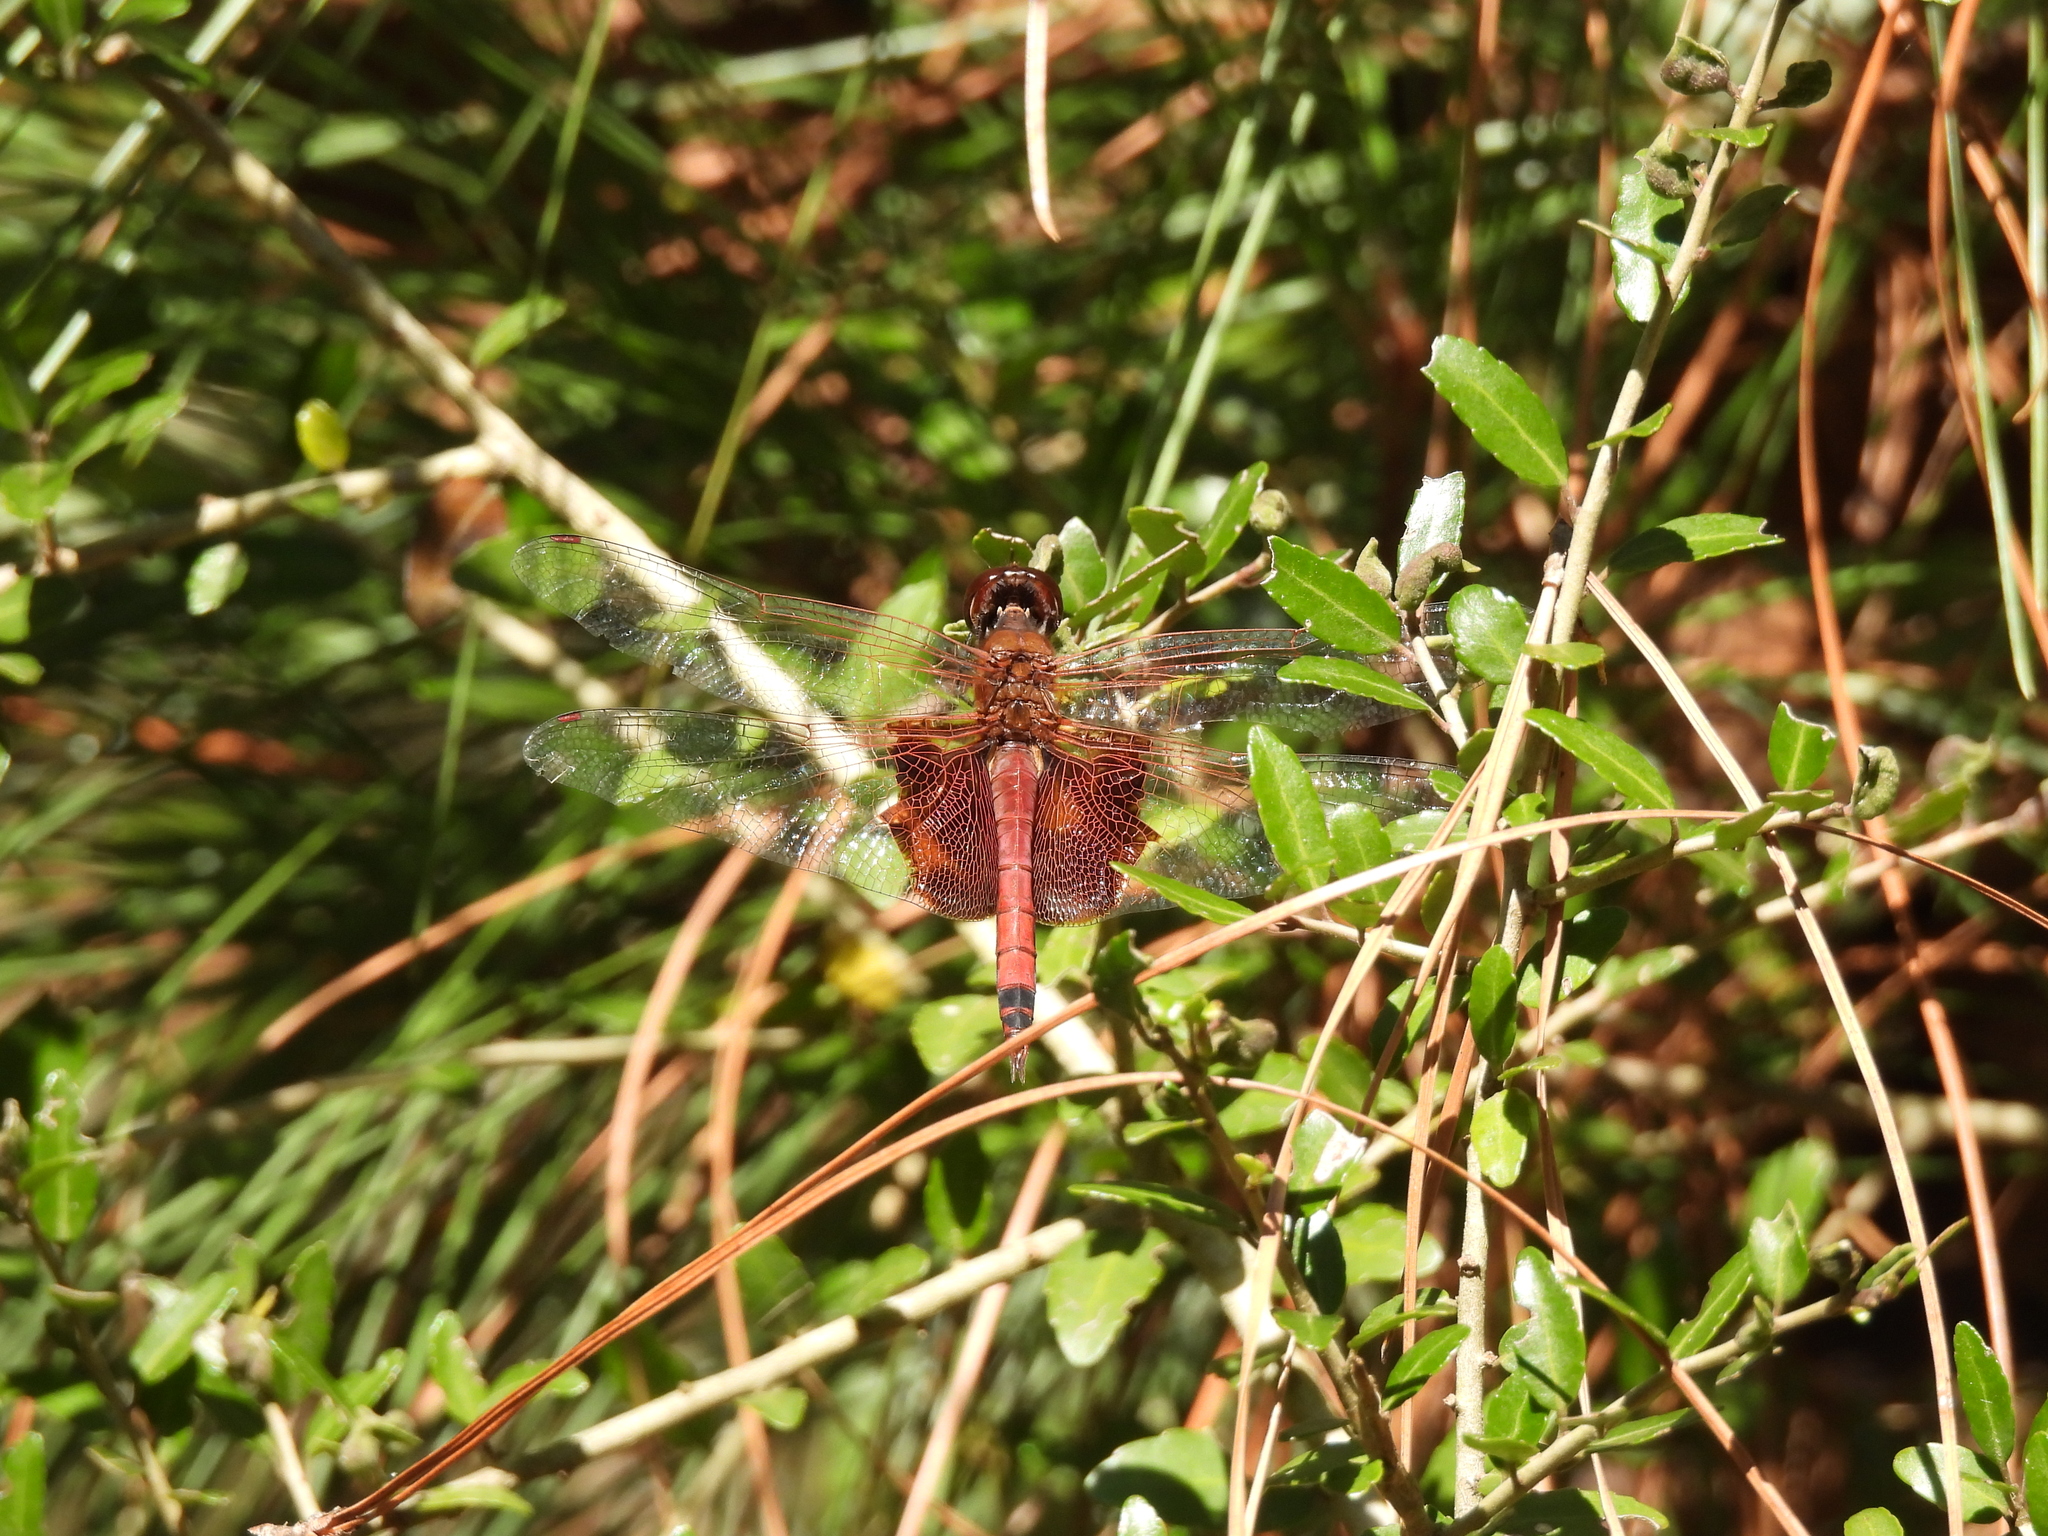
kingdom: Animalia
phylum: Arthropoda
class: Insecta
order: Odonata
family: Libellulidae
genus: Tramea
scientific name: Tramea carolina
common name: Carolina saddlebags
